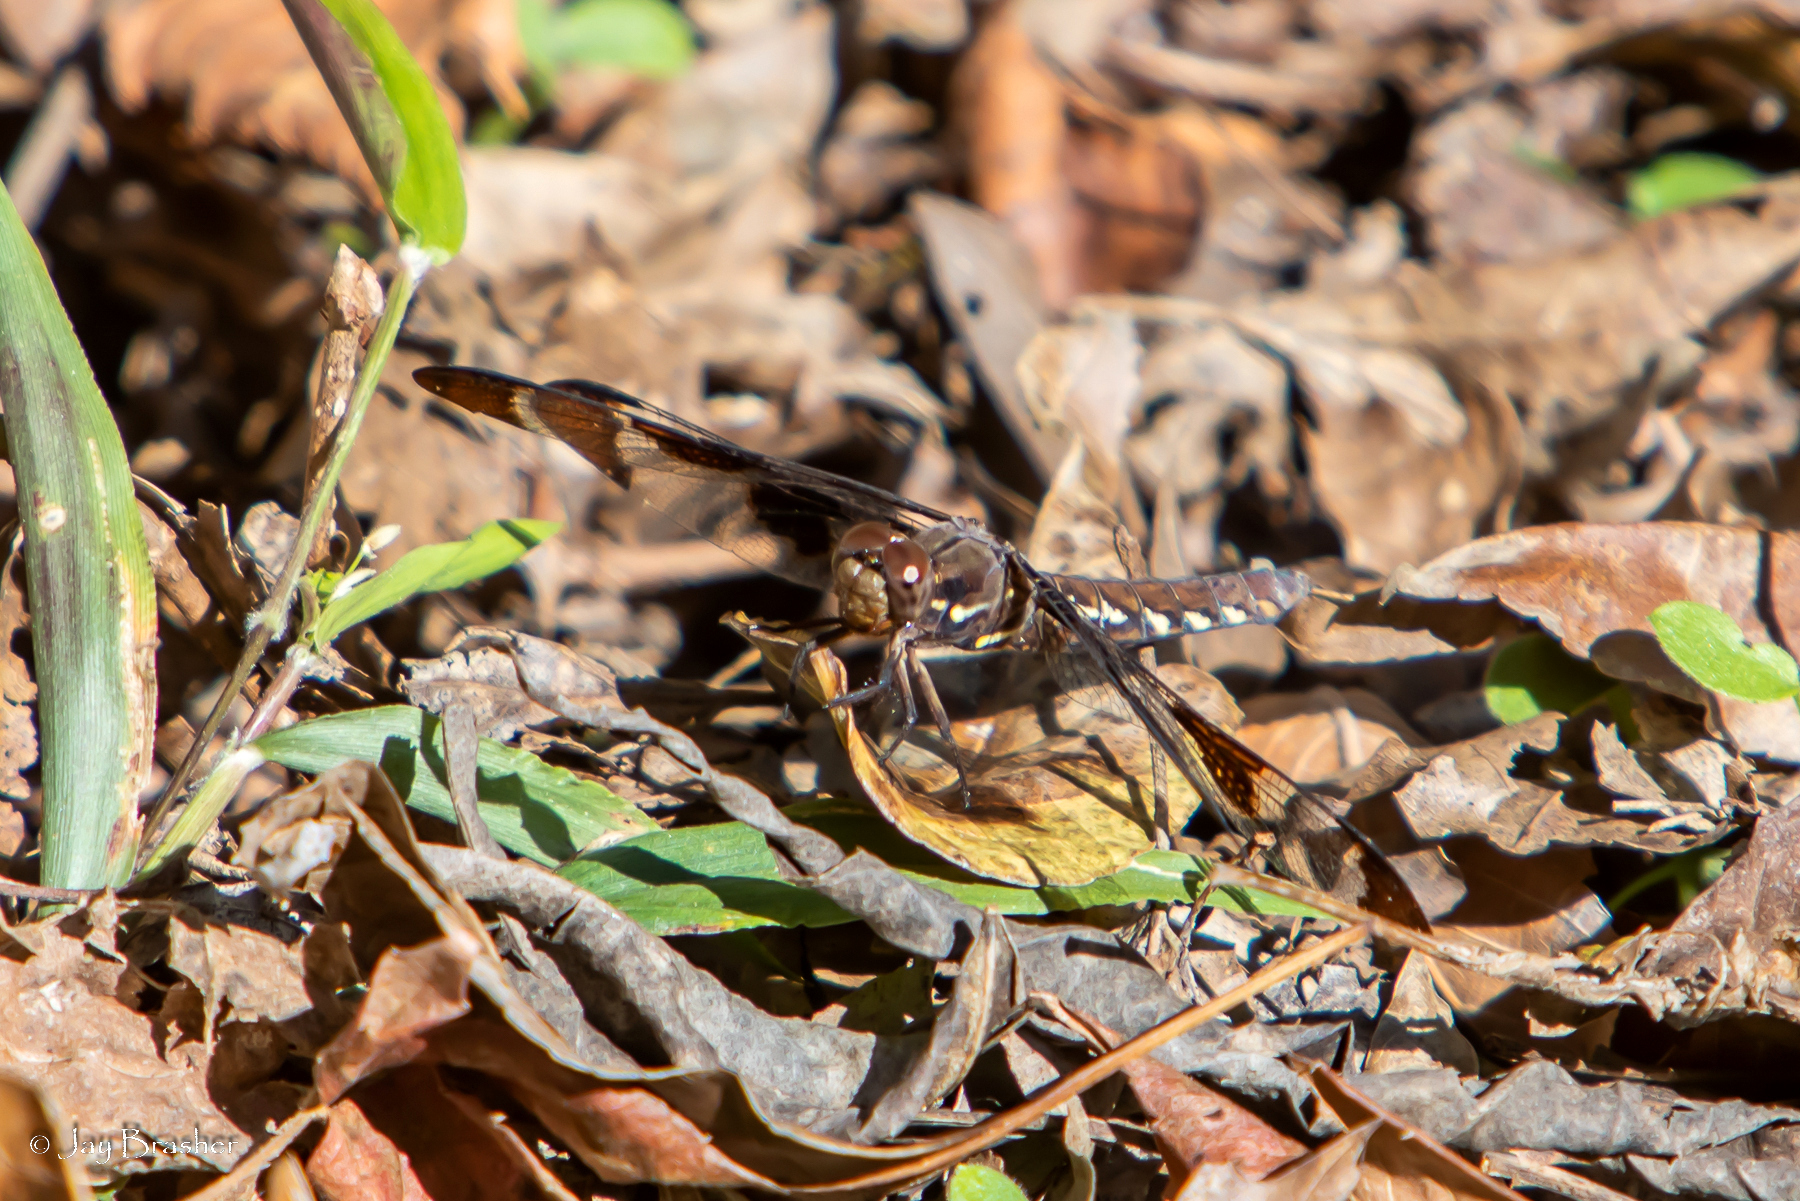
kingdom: Animalia
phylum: Arthropoda
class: Insecta
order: Odonata
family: Libellulidae
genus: Plathemis
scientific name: Plathemis lydia
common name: Common whitetail
